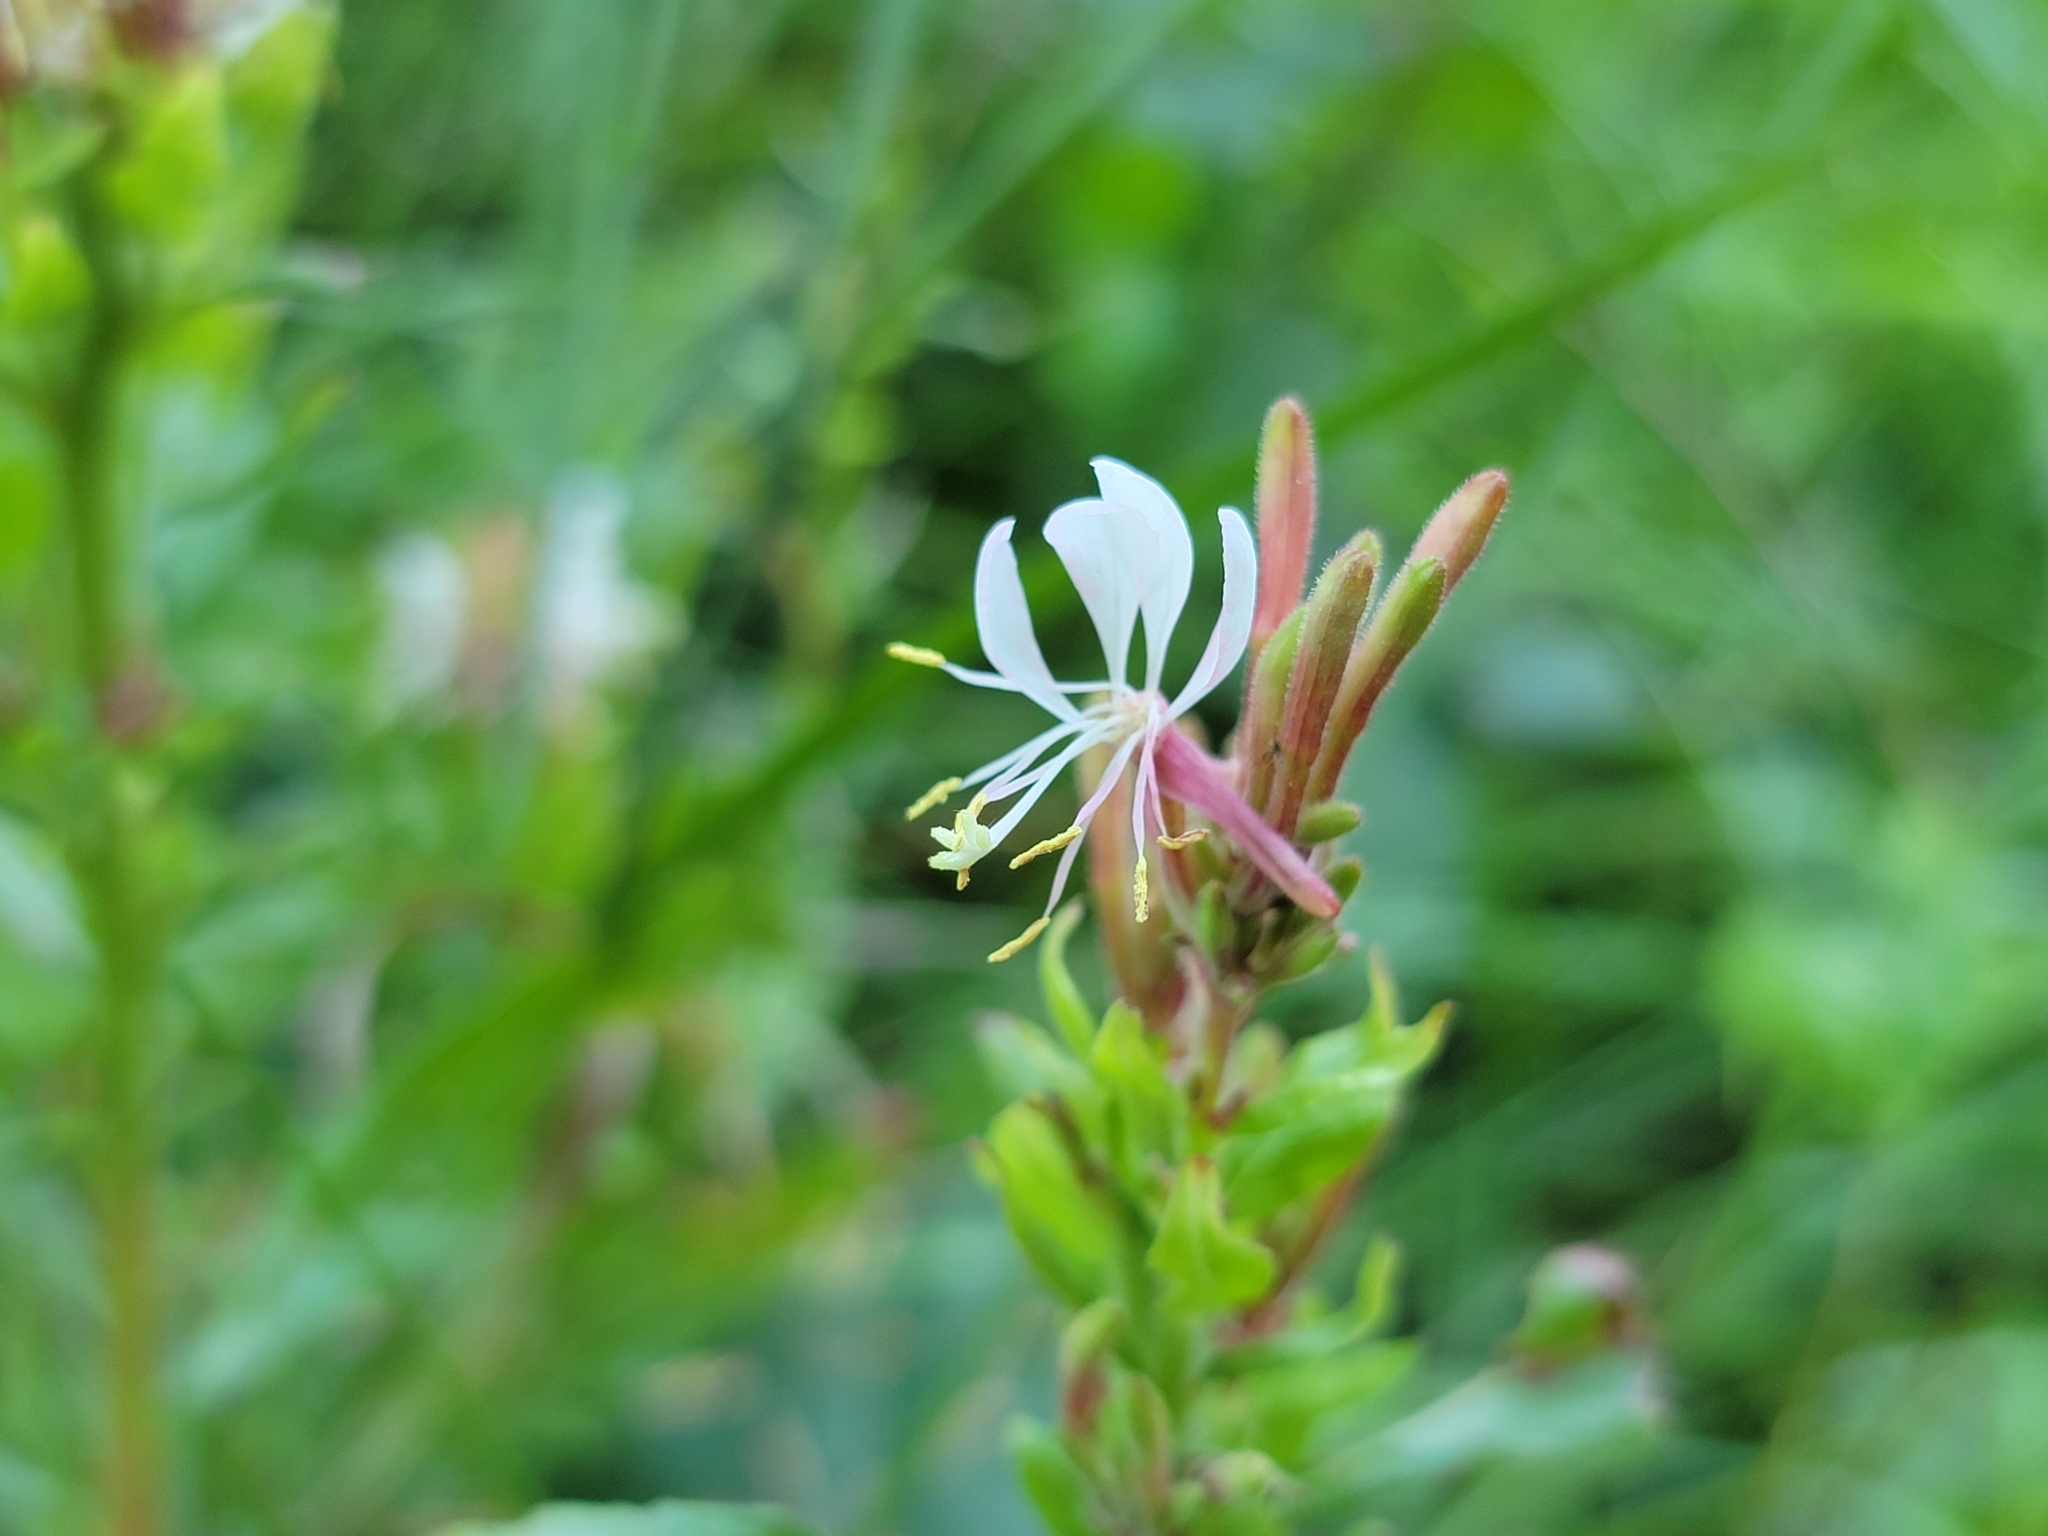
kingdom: Plantae
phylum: Tracheophyta
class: Magnoliopsida
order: Myrtales
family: Onagraceae
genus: Oenothera
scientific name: Oenothera gaura
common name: Biennial beeblossom
